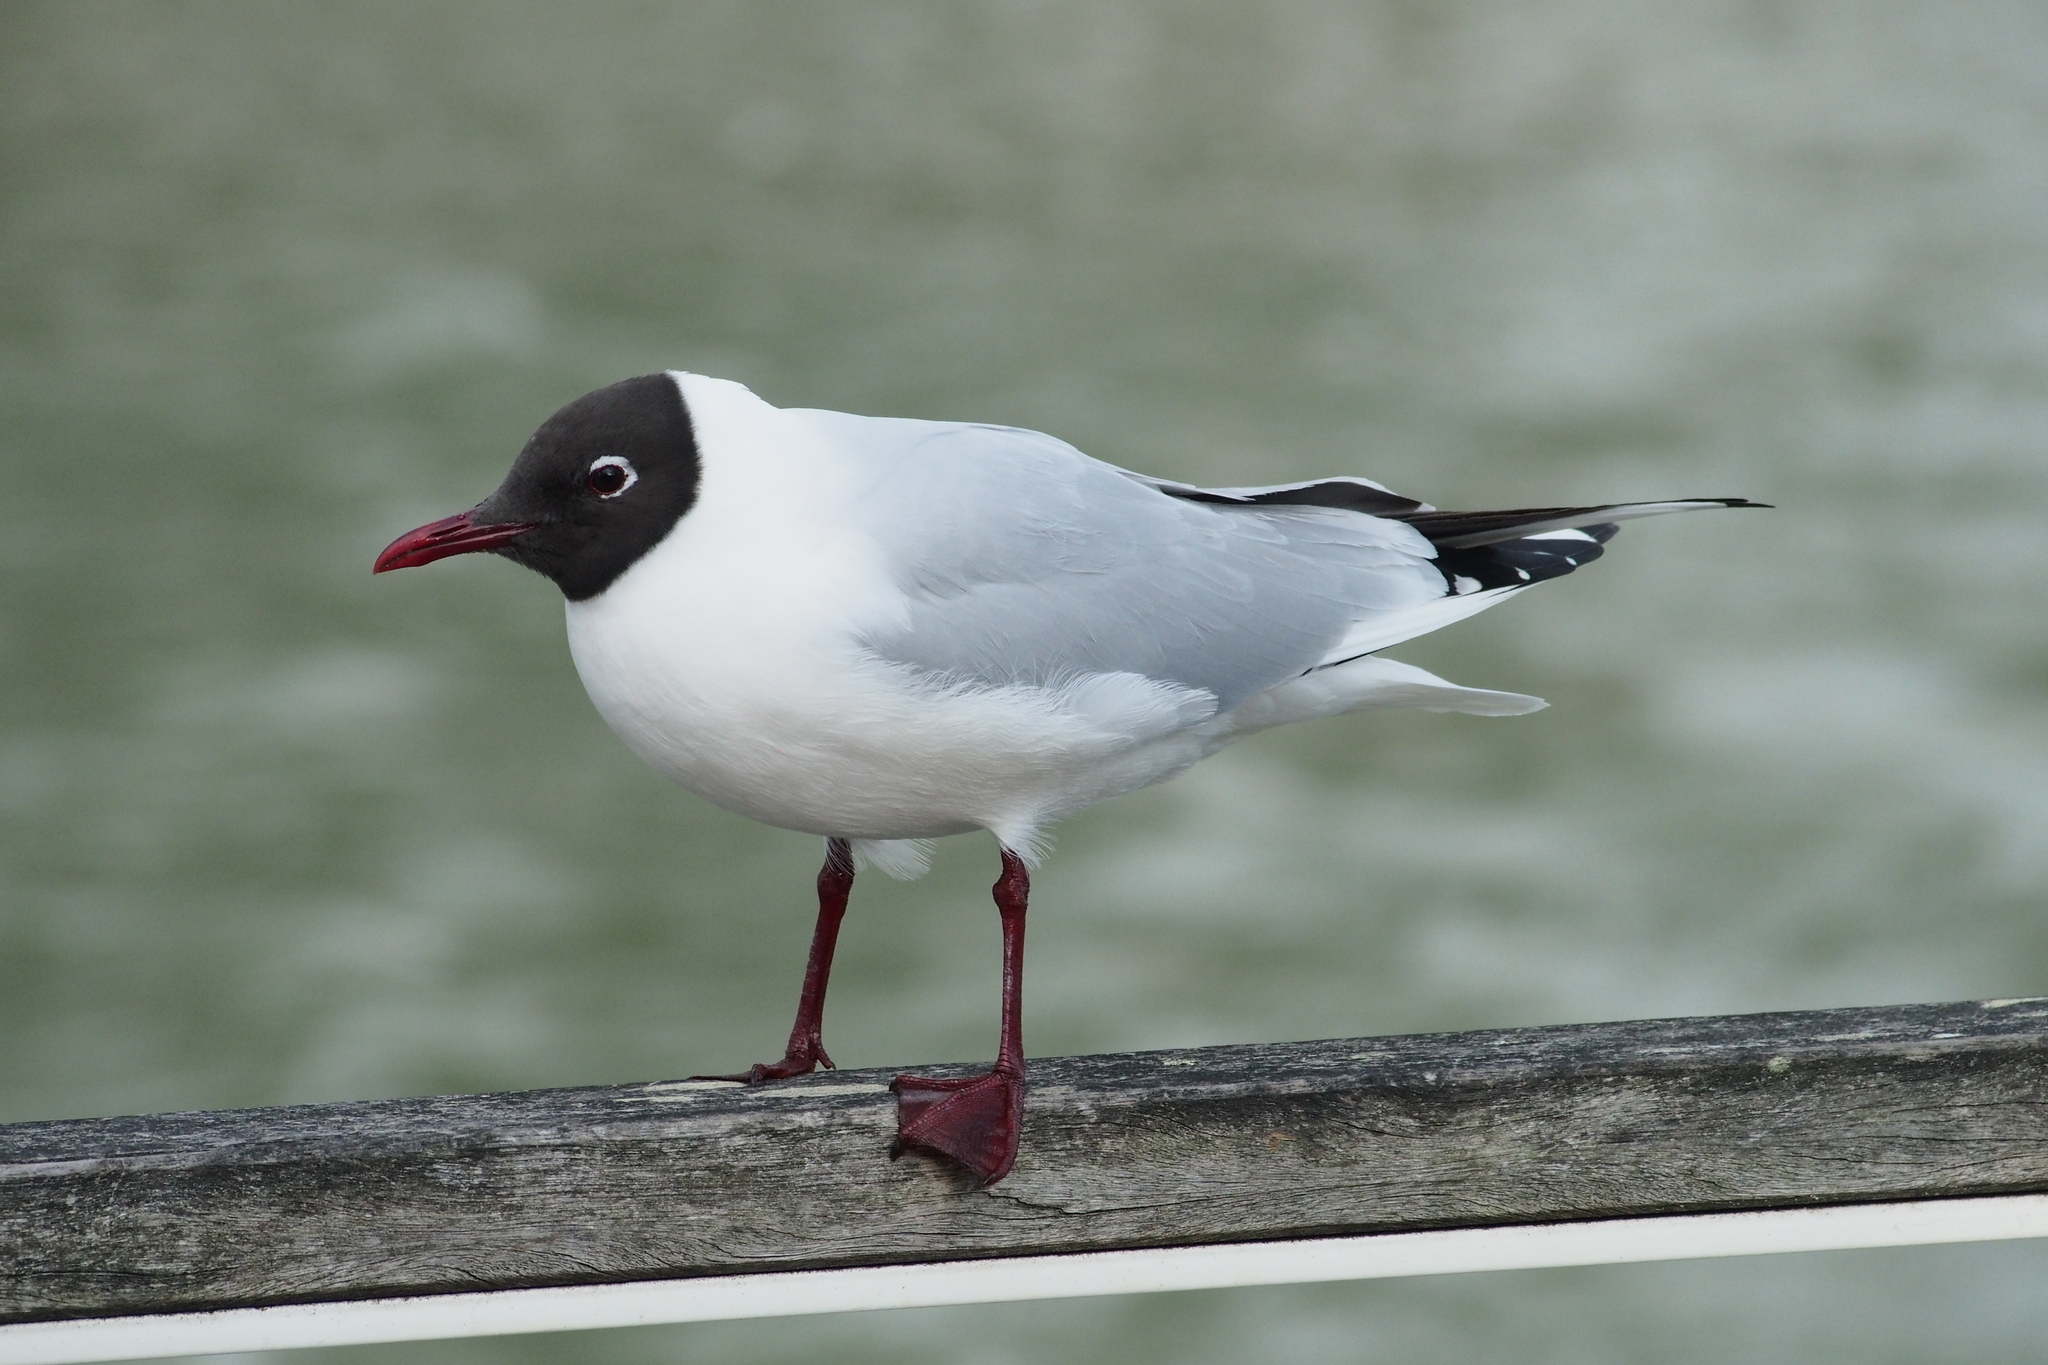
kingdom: Animalia
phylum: Chordata
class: Aves
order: Charadriiformes
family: Laridae
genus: Chroicocephalus
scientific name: Chroicocephalus ridibundus
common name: Black-headed gull
